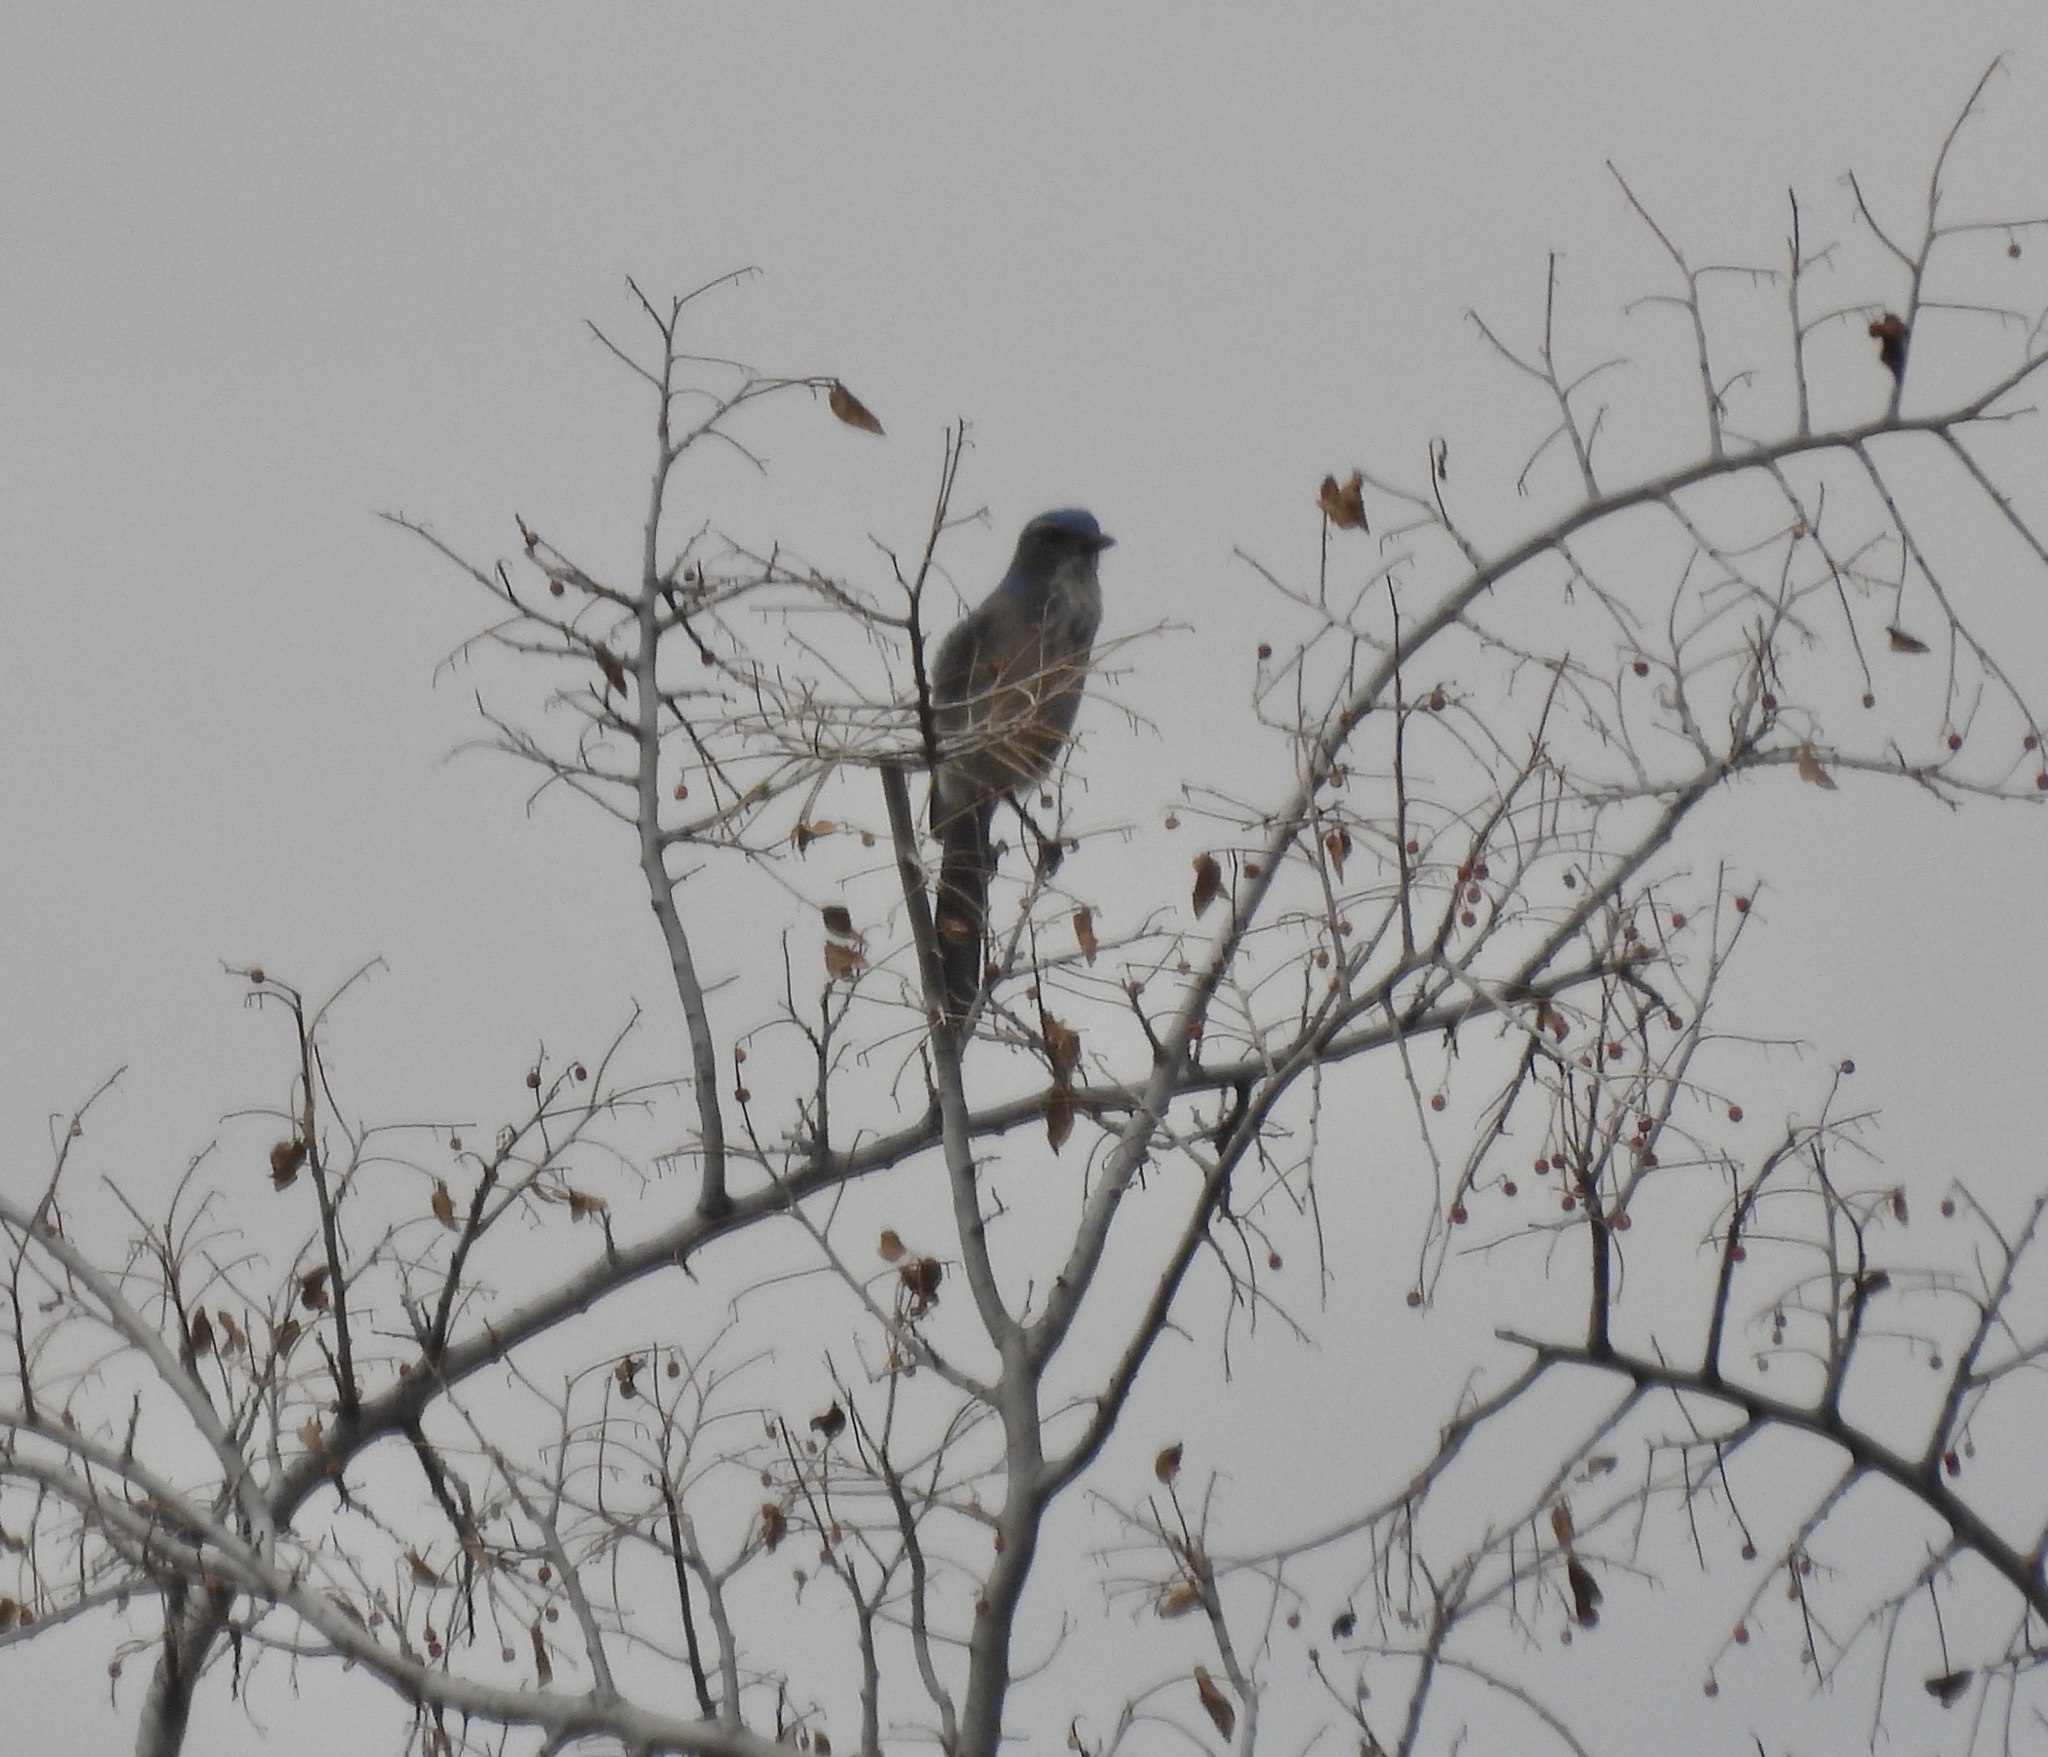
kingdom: Animalia
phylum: Chordata
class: Aves
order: Passeriformes
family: Corvidae
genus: Aphelocoma
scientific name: Aphelocoma woodhouseii
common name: Woodhouse's scrub-jay
